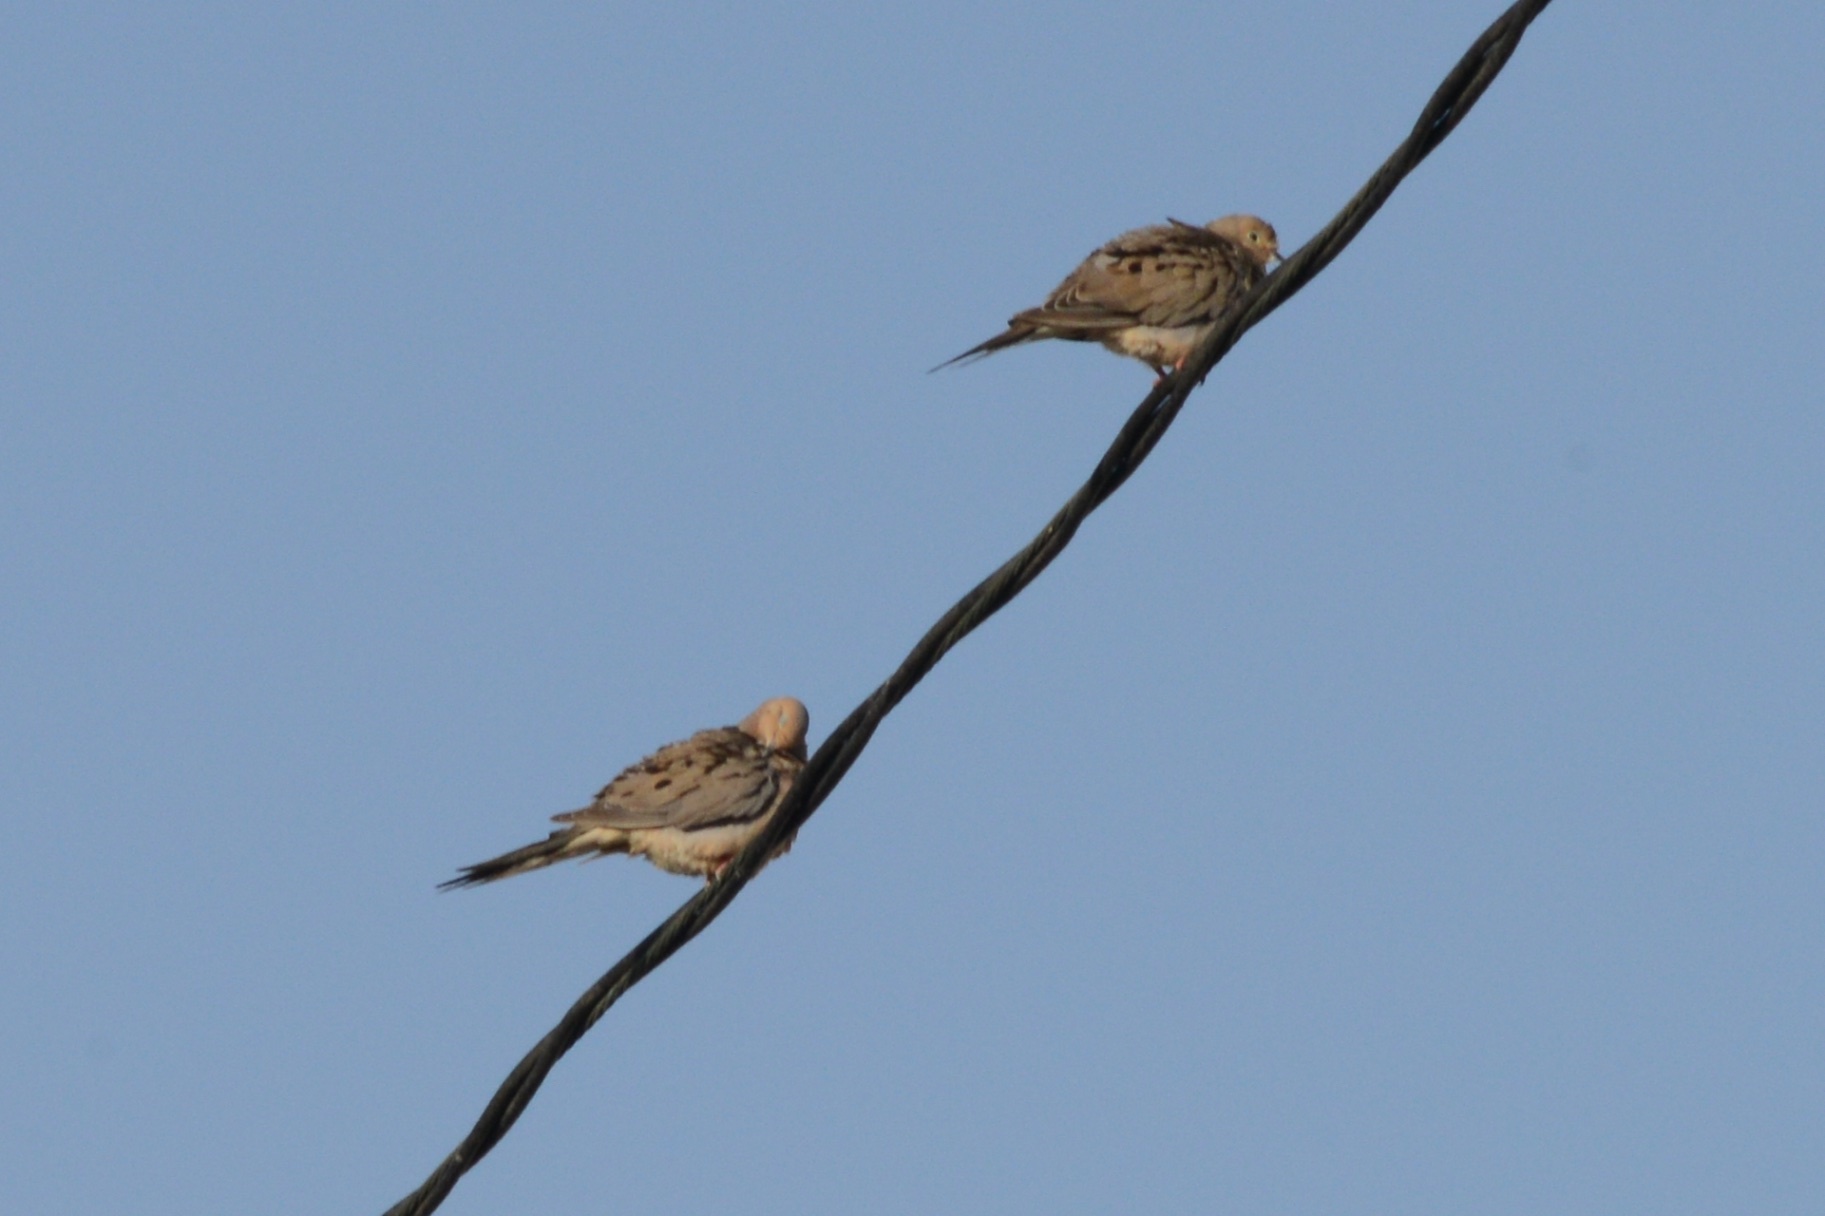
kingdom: Animalia
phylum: Chordata
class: Aves
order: Columbiformes
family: Columbidae
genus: Zenaida
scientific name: Zenaida macroura
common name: Mourning dove
